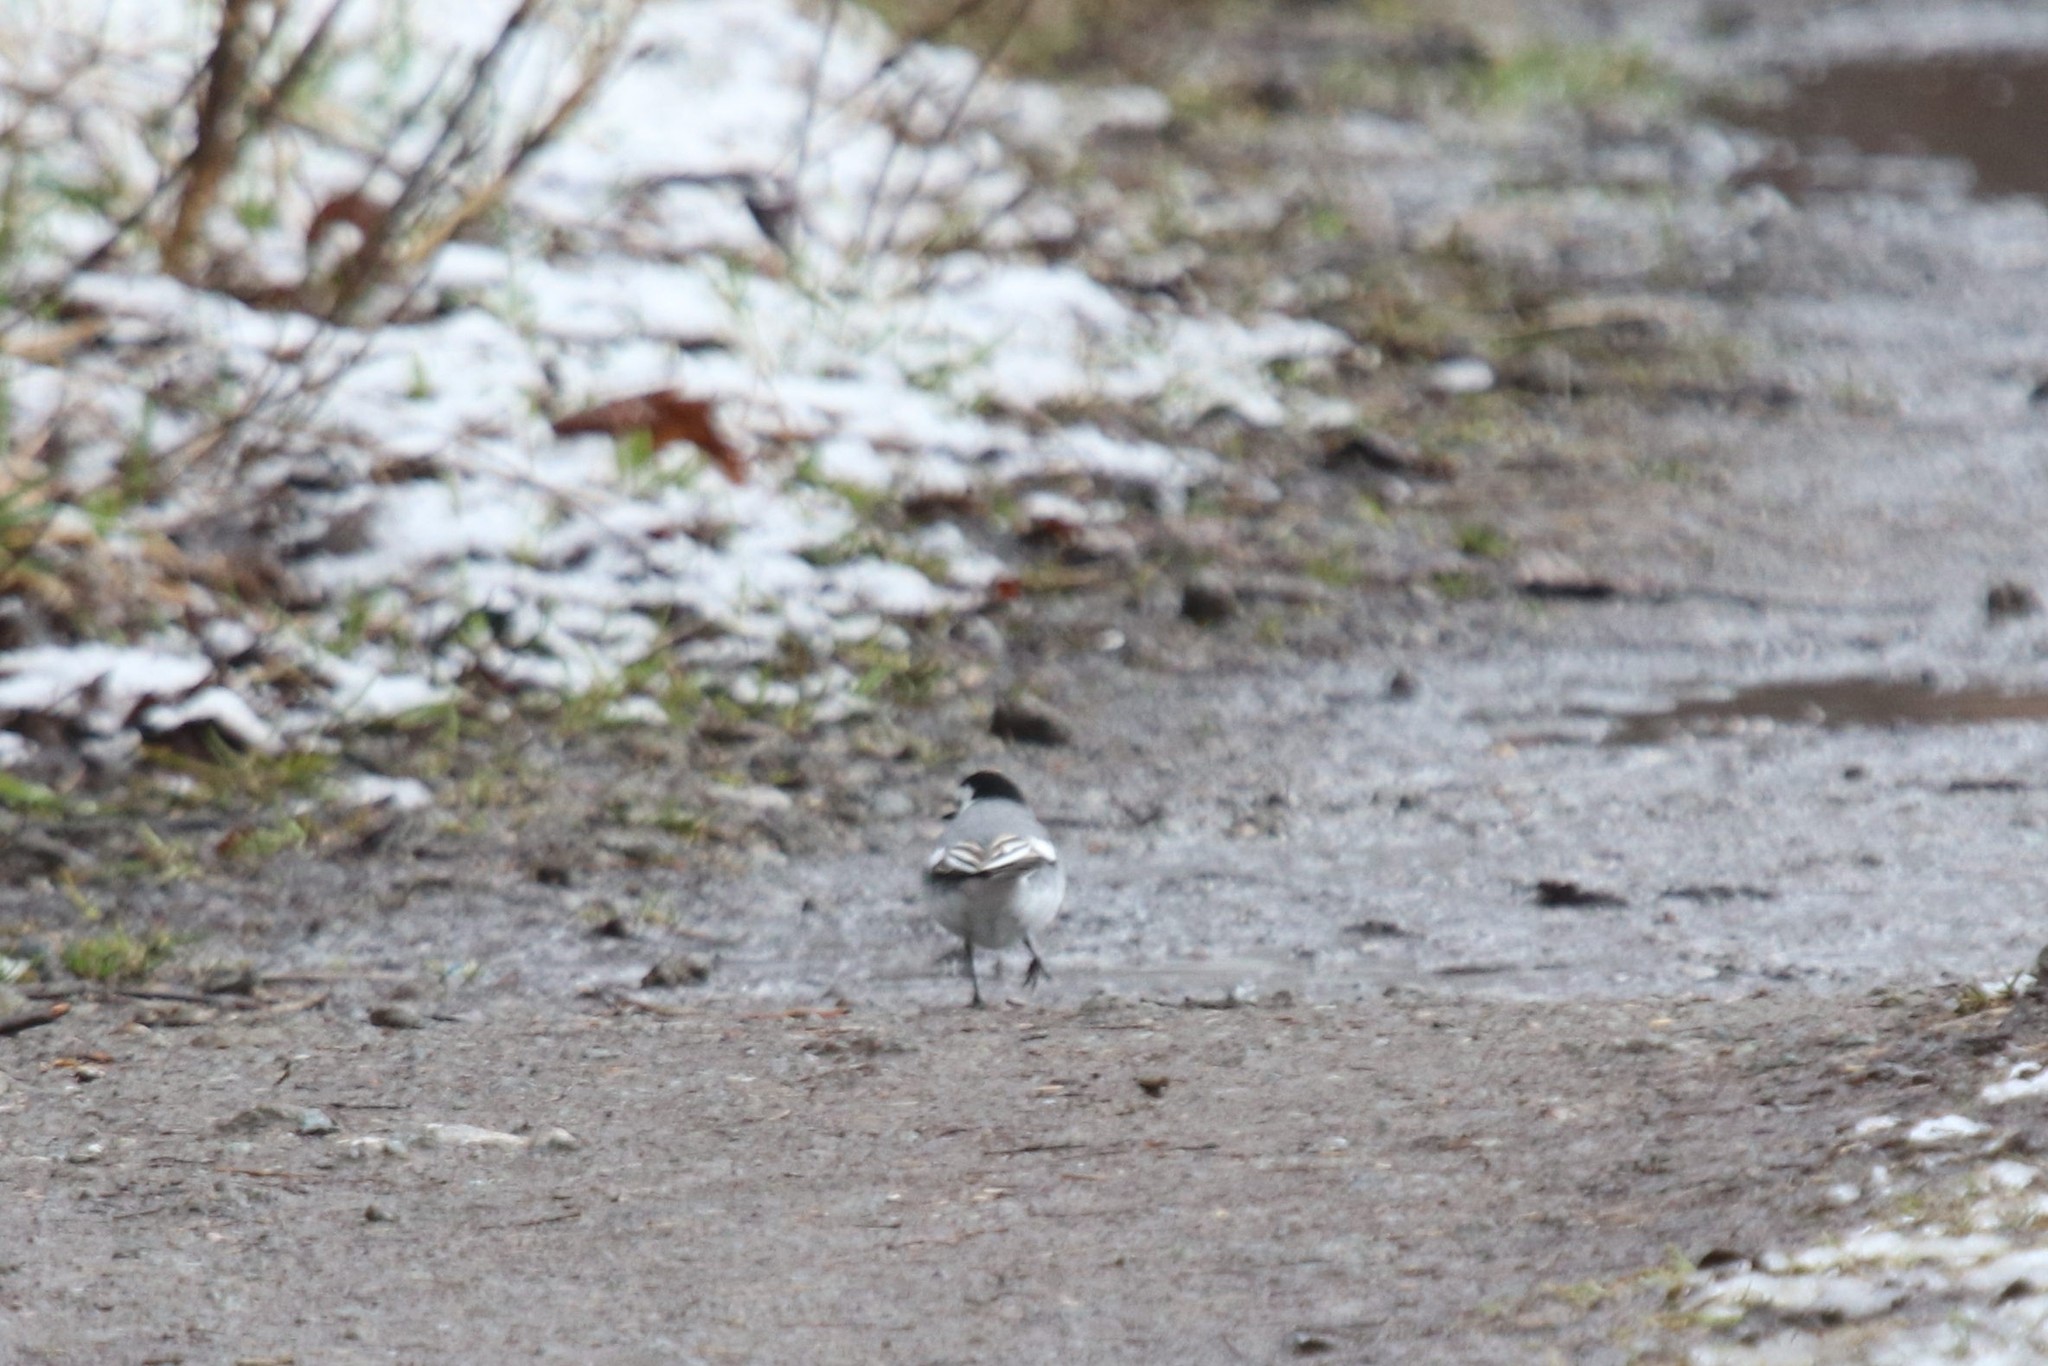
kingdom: Animalia
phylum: Chordata
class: Aves
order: Passeriformes
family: Motacillidae
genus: Motacilla
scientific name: Motacilla alba
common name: White wagtail
